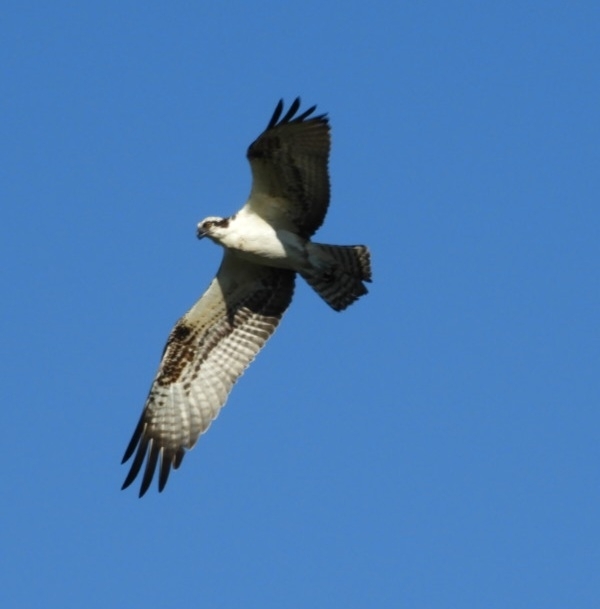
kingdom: Animalia
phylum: Chordata
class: Aves
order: Accipitriformes
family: Pandionidae
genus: Pandion
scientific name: Pandion haliaetus
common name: Osprey
